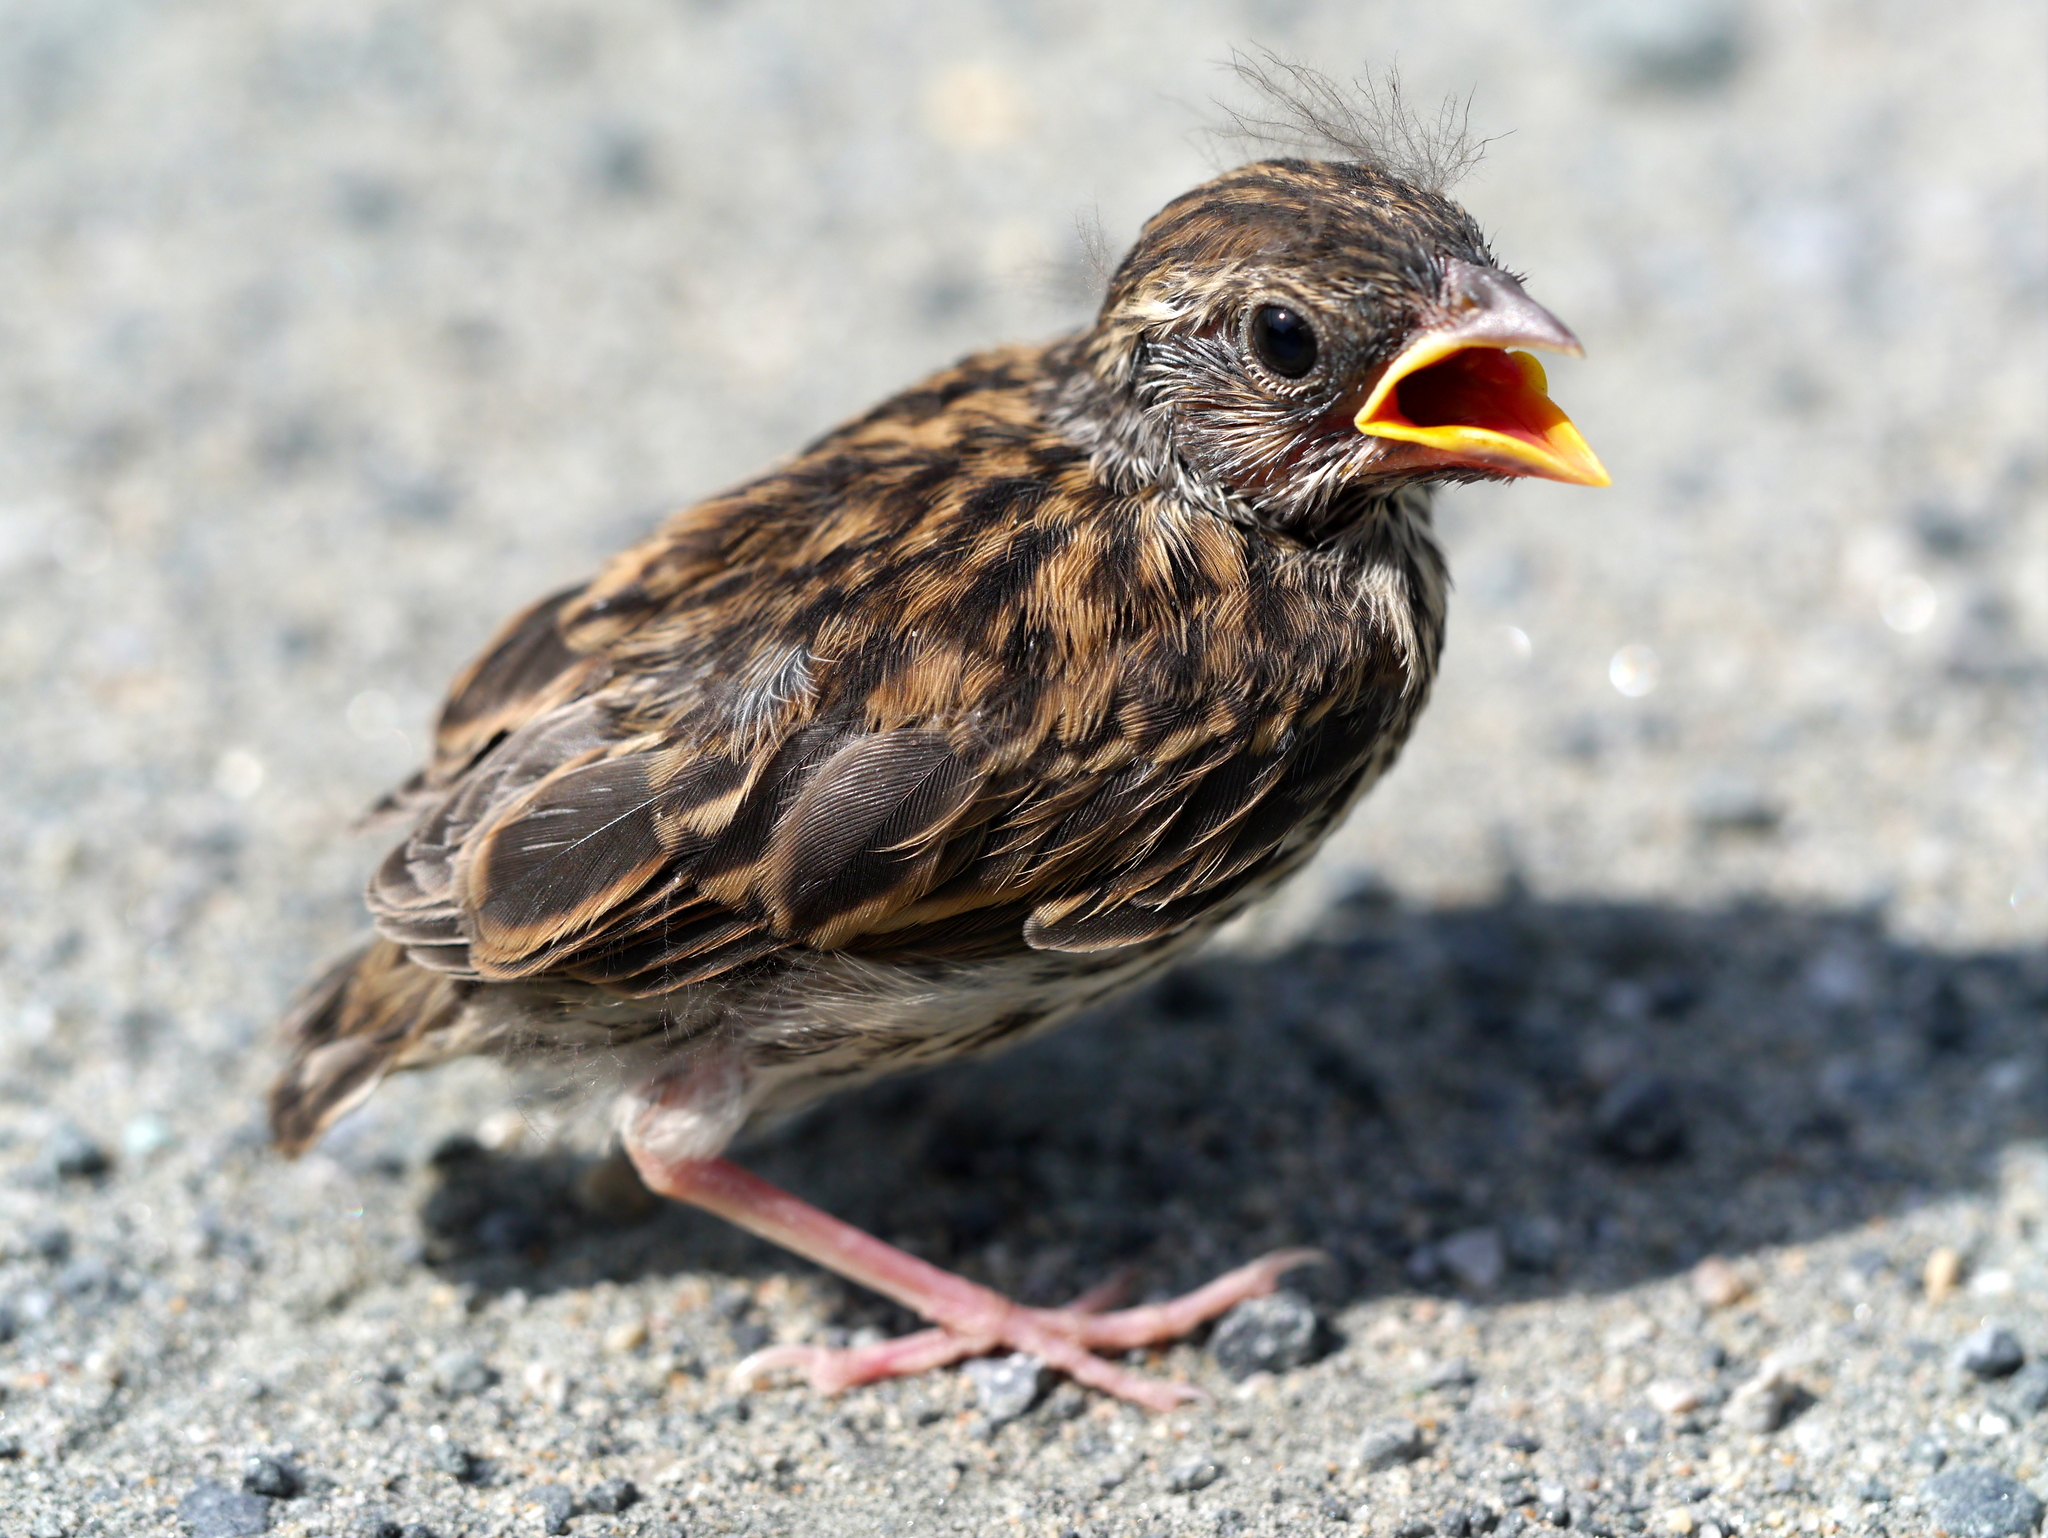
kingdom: Animalia
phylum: Chordata
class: Aves
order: Passeriformes
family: Passeridae
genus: Passer
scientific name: Passer domesticus
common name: House sparrow
